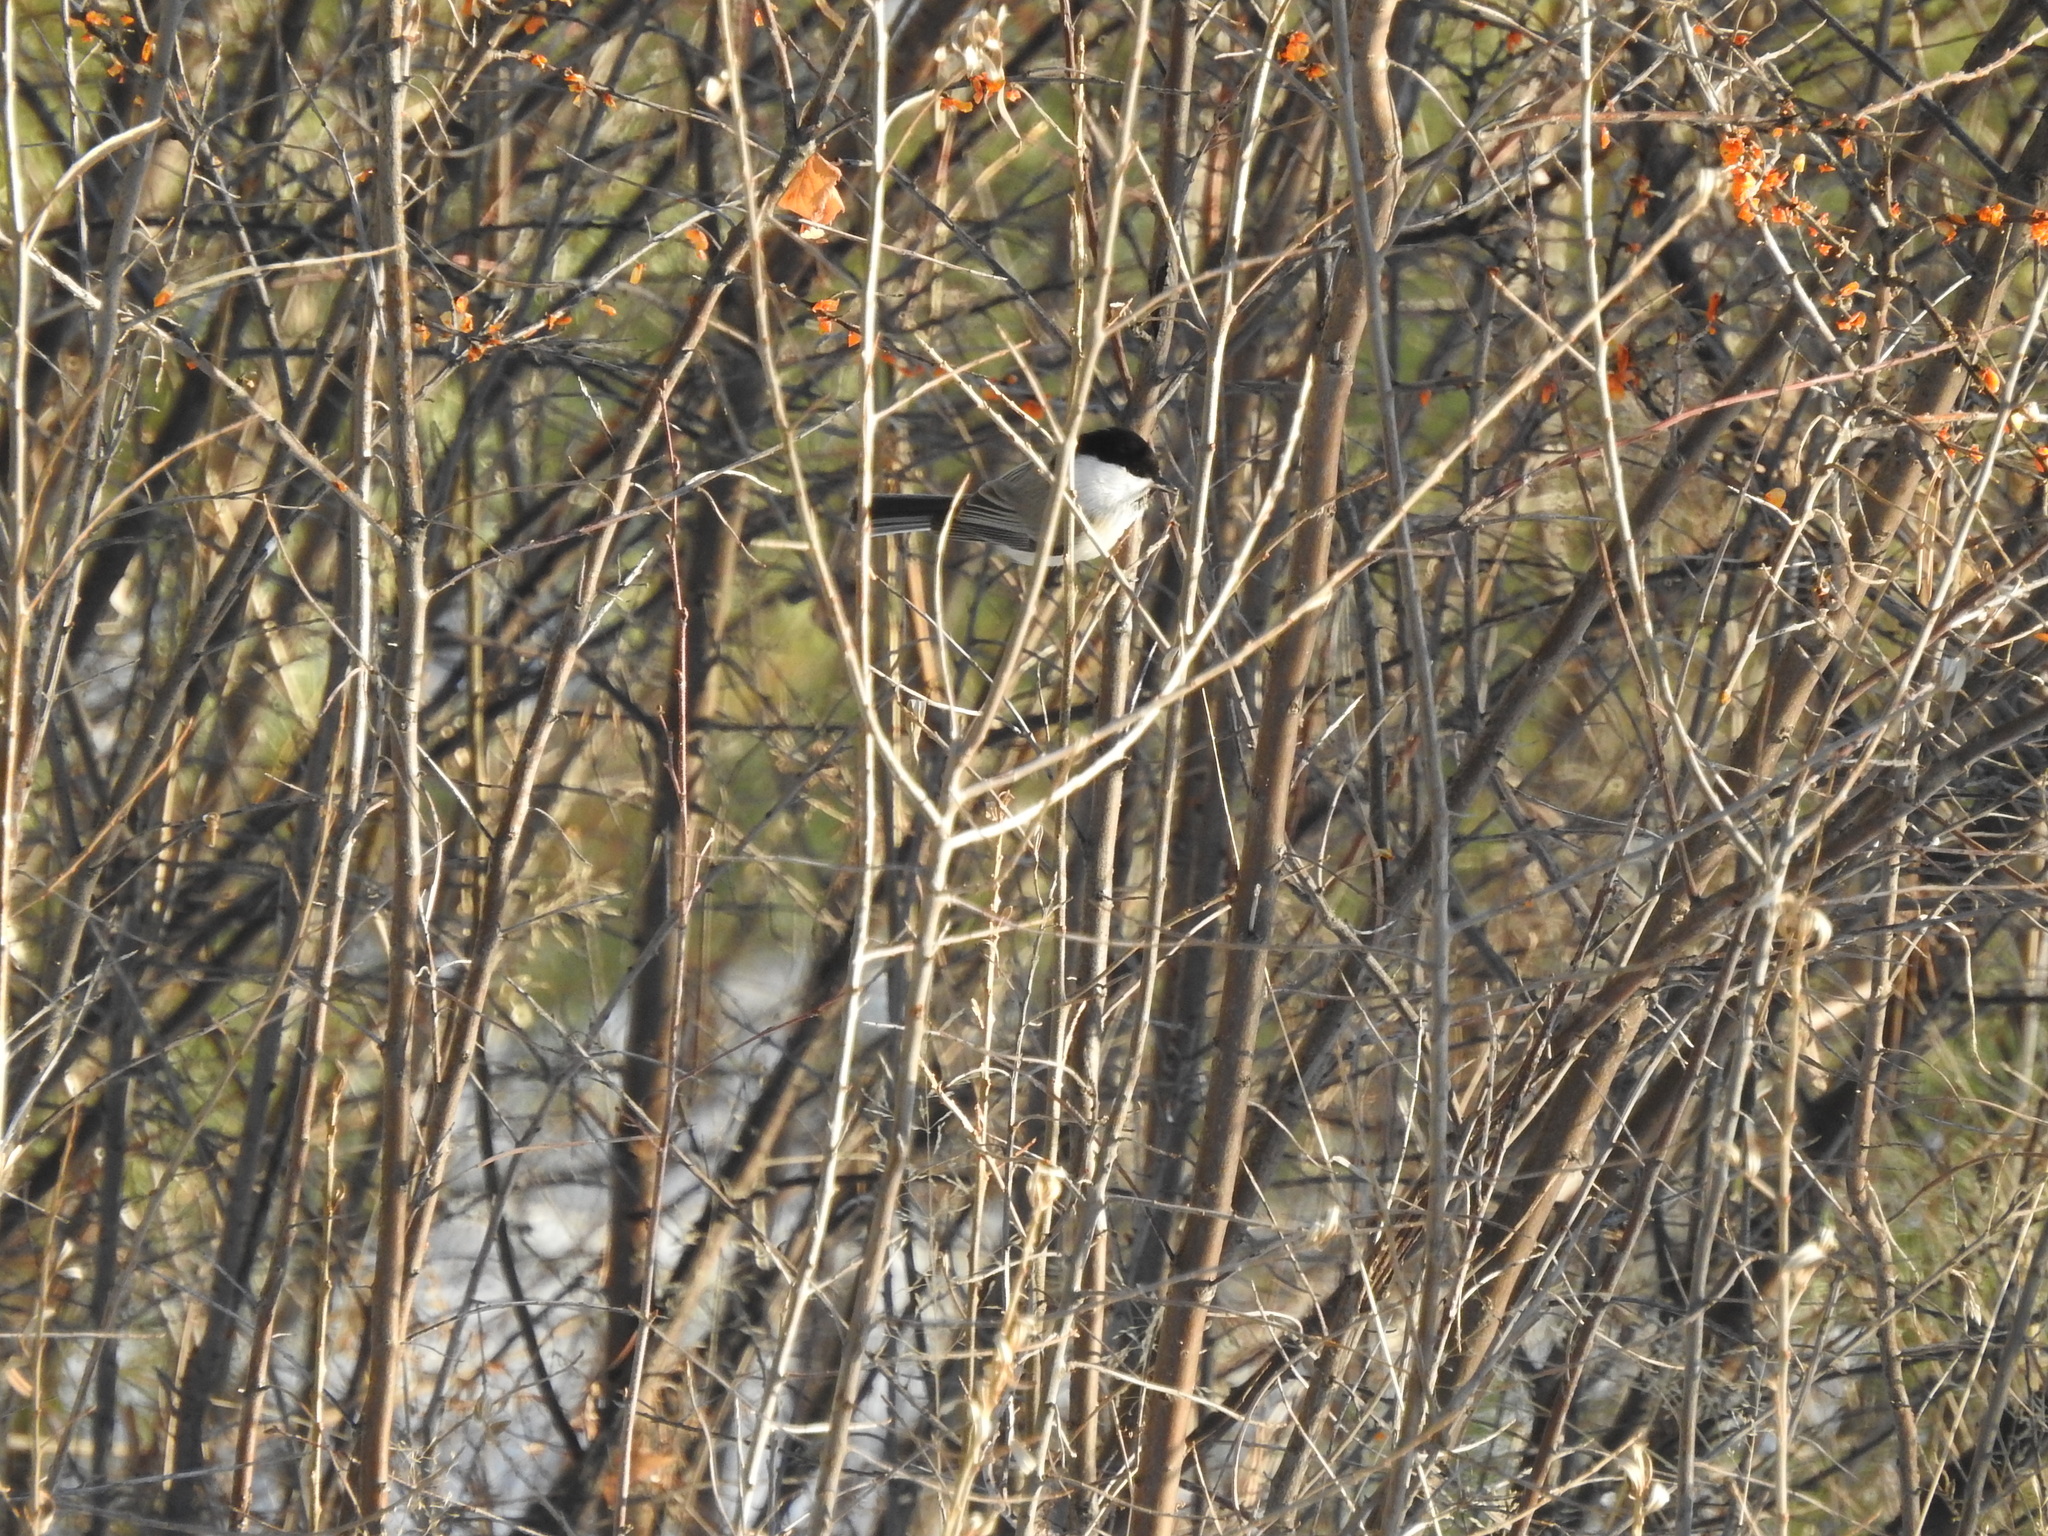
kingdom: Animalia
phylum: Chordata
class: Aves
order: Passeriformes
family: Paridae
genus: Poecile
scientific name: Poecile montanus
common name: Willow tit
